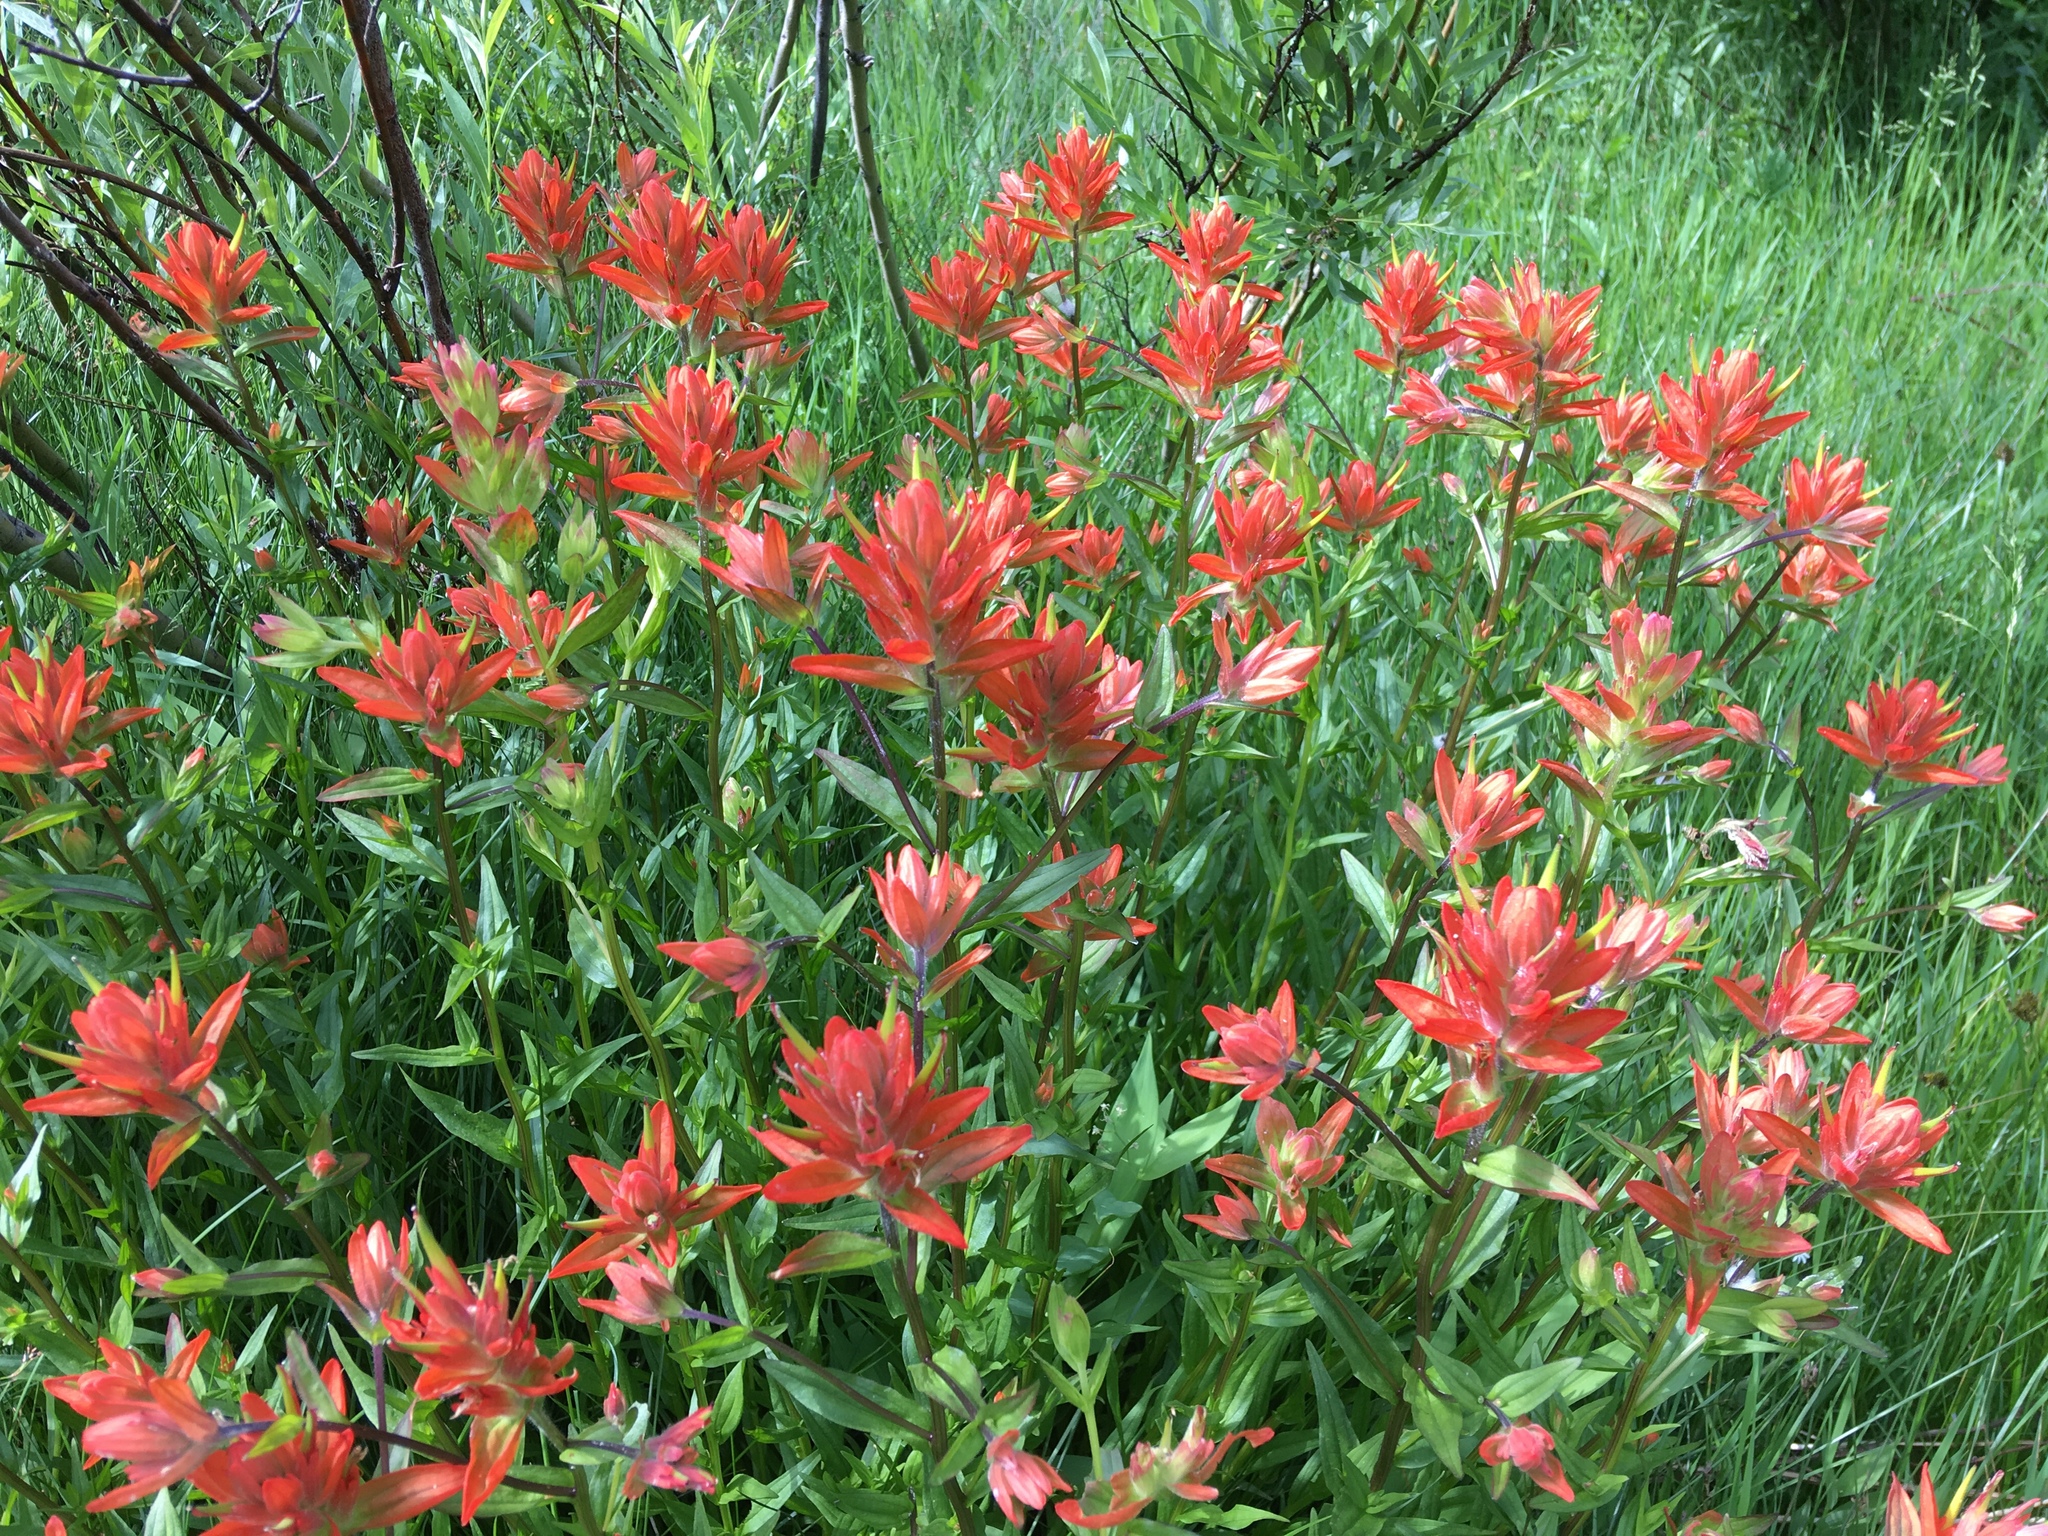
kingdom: Plantae
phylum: Tracheophyta
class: Magnoliopsida
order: Lamiales
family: Orobanchaceae
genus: Castilleja
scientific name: Castilleja miniata
